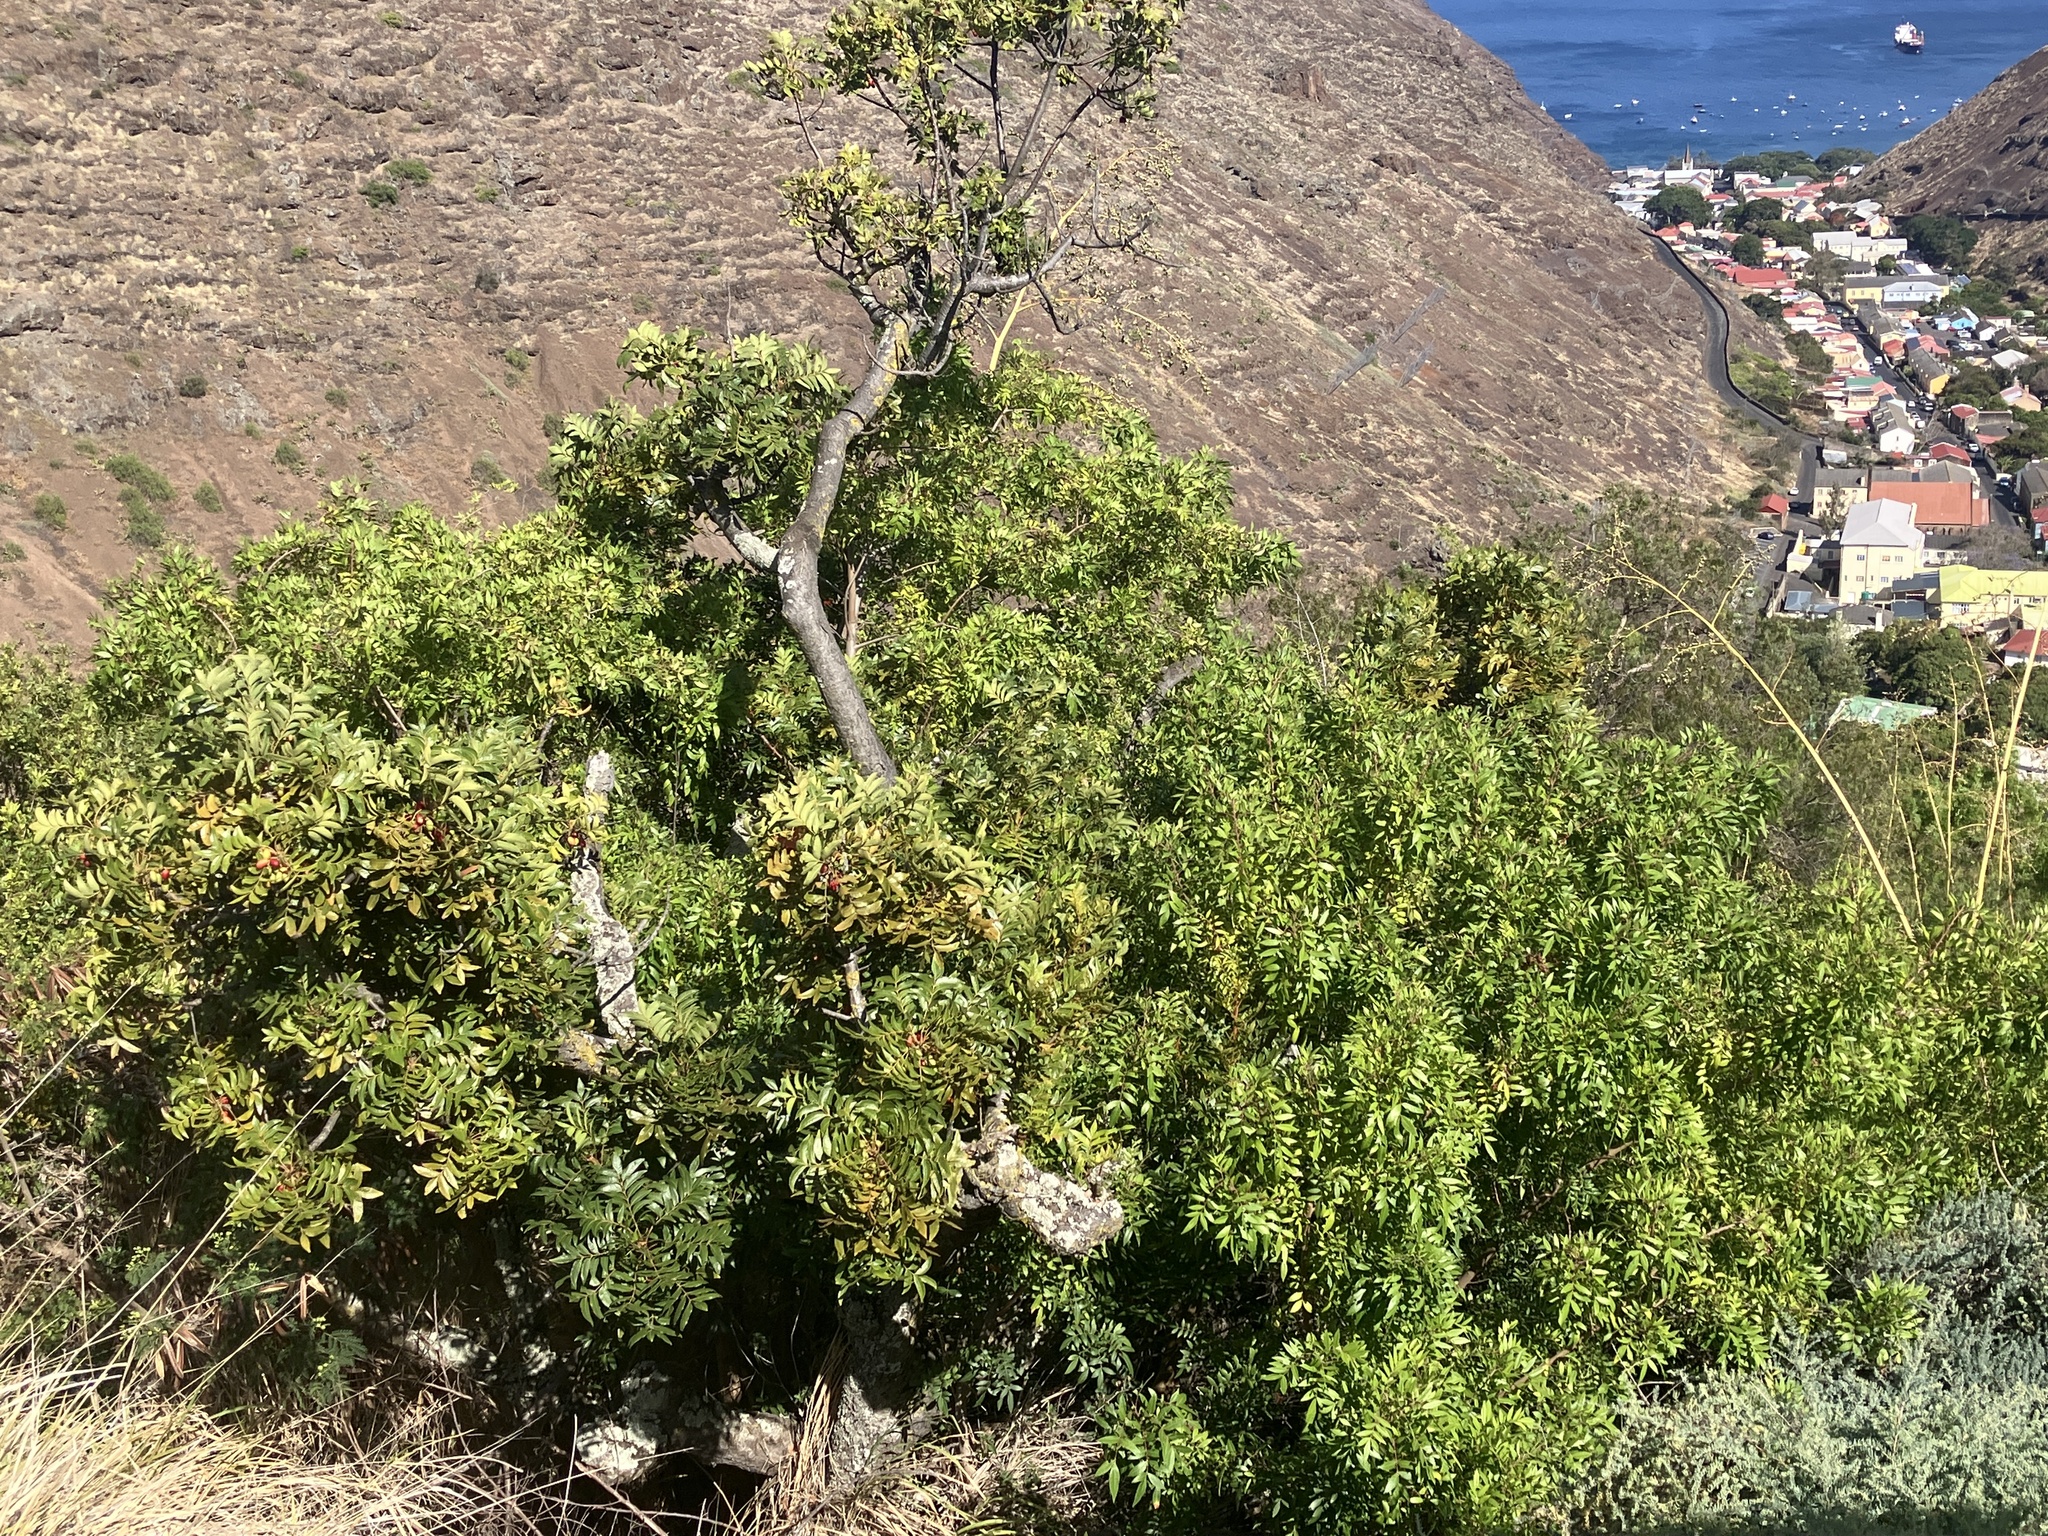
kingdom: Plantae
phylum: Tracheophyta
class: Magnoliopsida
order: Sapindales
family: Anacardiaceae
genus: Schinus
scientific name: Schinus terebinthifolia
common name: Brazilian peppertree
